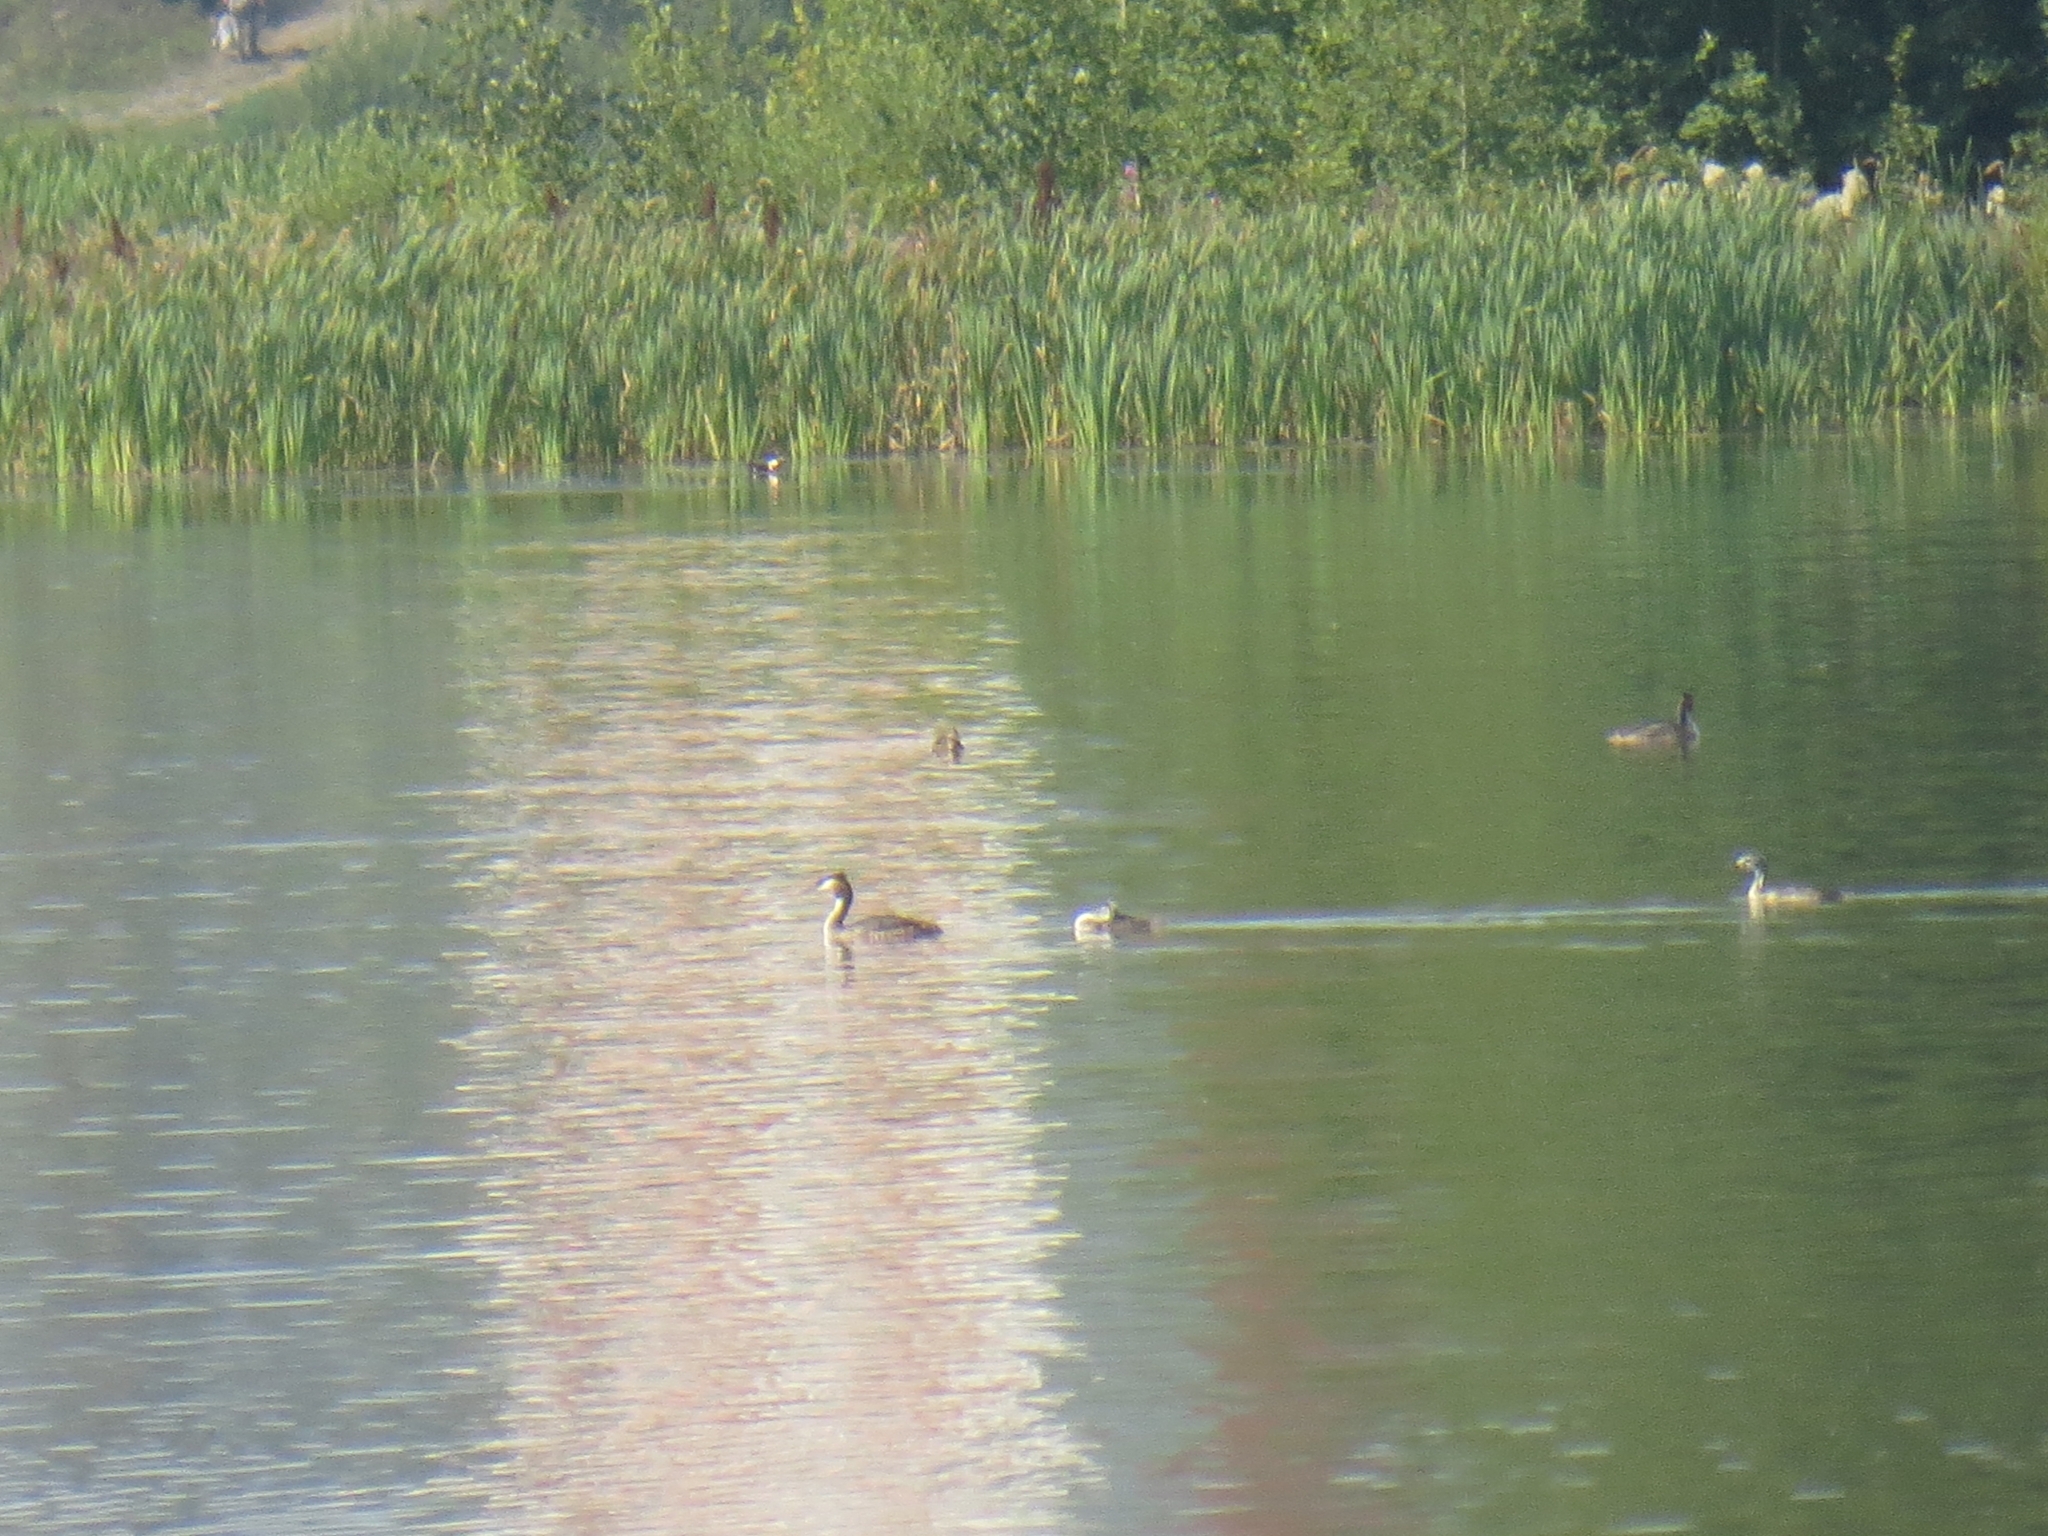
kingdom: Animalia
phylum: Chordata
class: Aves
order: Podicipediformes
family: Podicipedidae
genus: Podiceps
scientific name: Podiceps cristatus
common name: Great crested grebe
